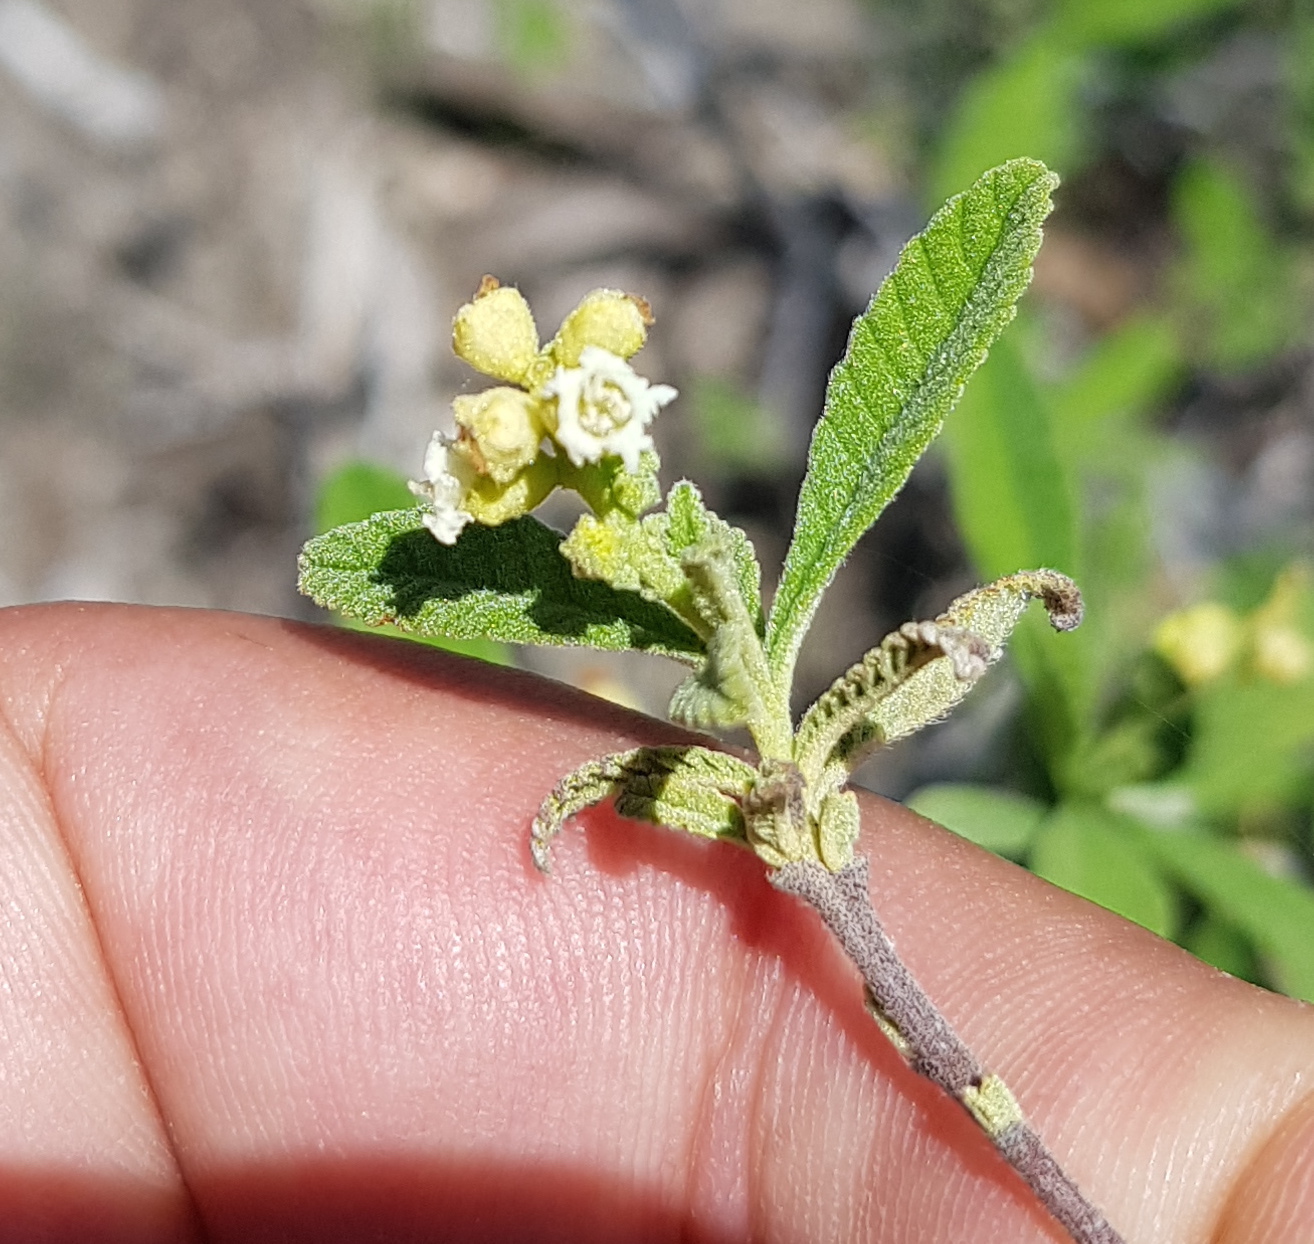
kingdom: Plantae
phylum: Tracheophyta
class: Magnoliopsida
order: Boraginales
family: Cordiaceae
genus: Varronia
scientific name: Varronia curassavica
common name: Black sage
